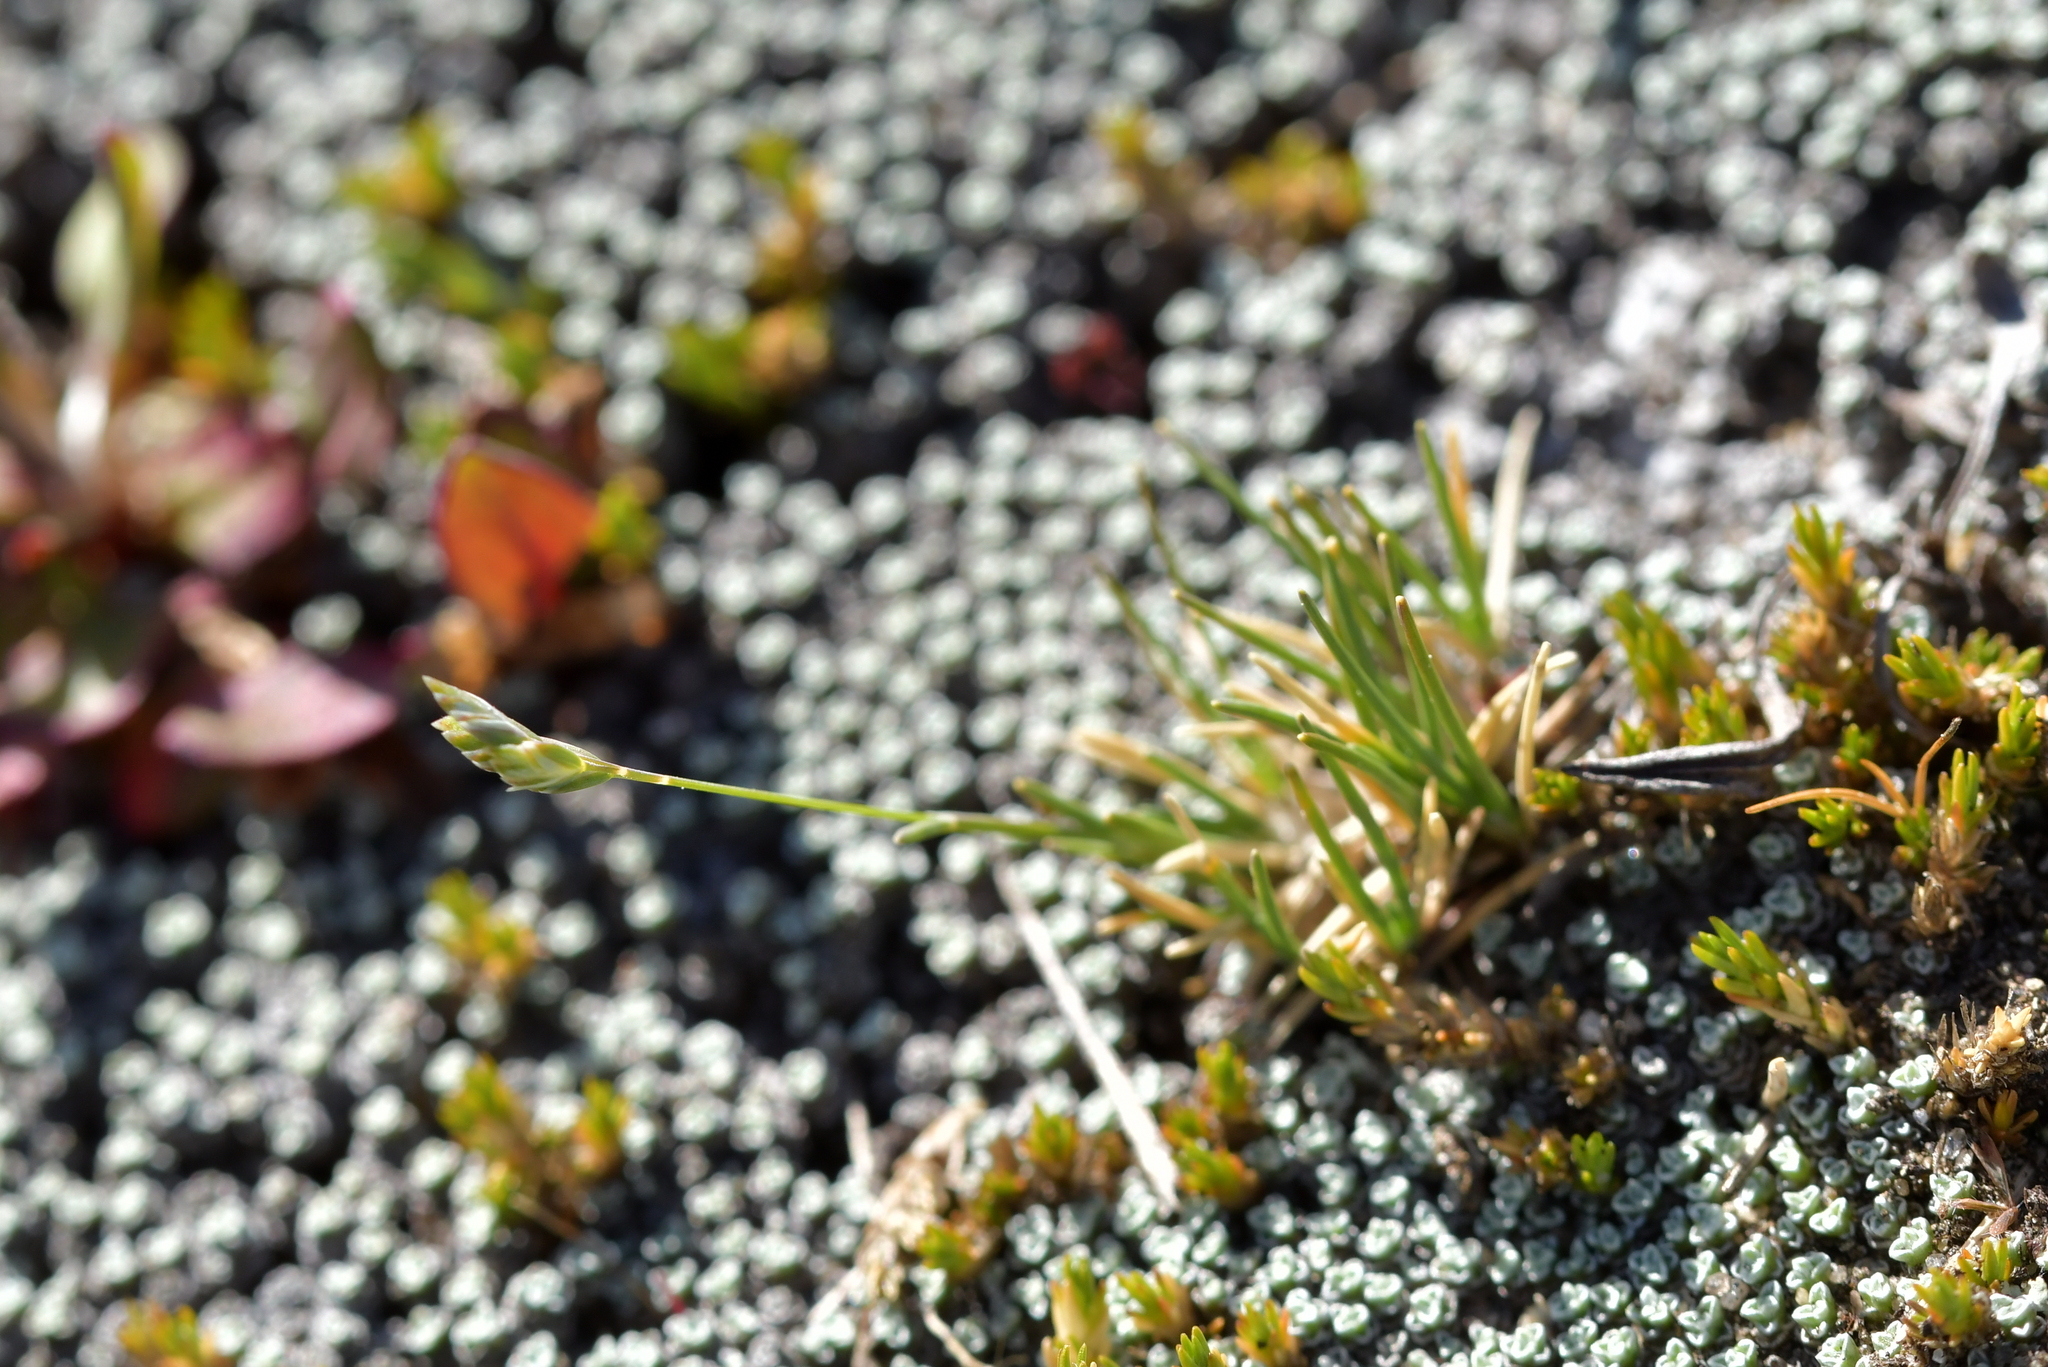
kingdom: Plantae
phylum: Tracheophyta
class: Liliopsida
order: Poales
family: Poaceae
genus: Poa
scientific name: Poa maniototo
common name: Desert poa
